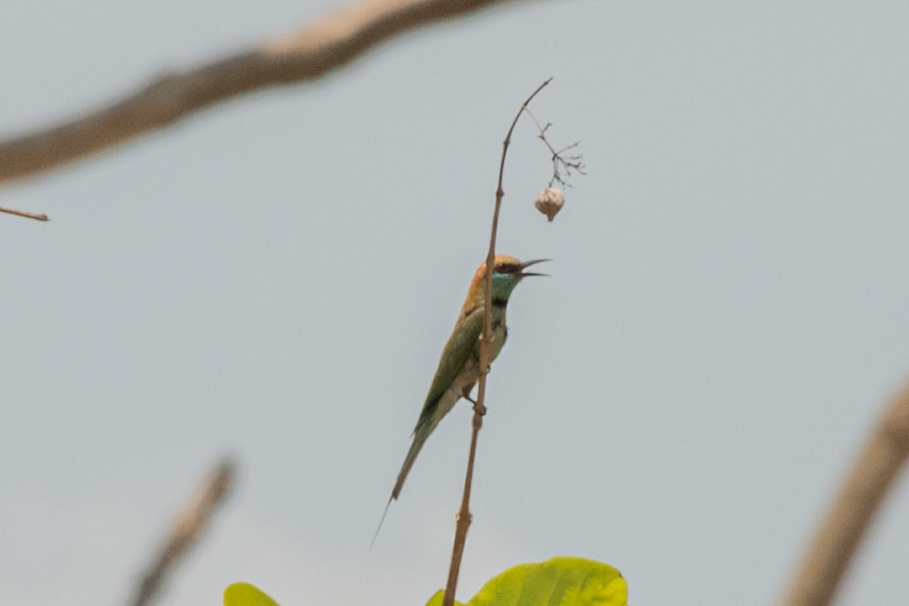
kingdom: Animalia
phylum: Chordata
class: Aves
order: Coraciiformes
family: Meropidae
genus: Merops
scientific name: Merops orientalis
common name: Green bee-eater
